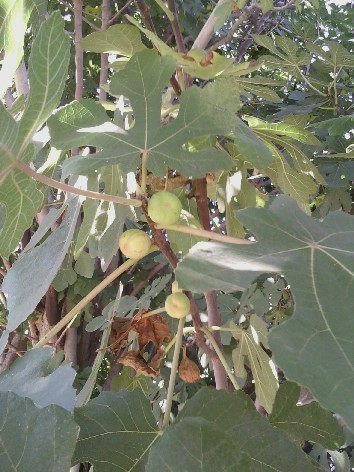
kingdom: Plantae
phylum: Tracheophyta
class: Magnoliopsida
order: Rosales
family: Moraceae
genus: Ficus
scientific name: Ficus carica
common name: Fig
